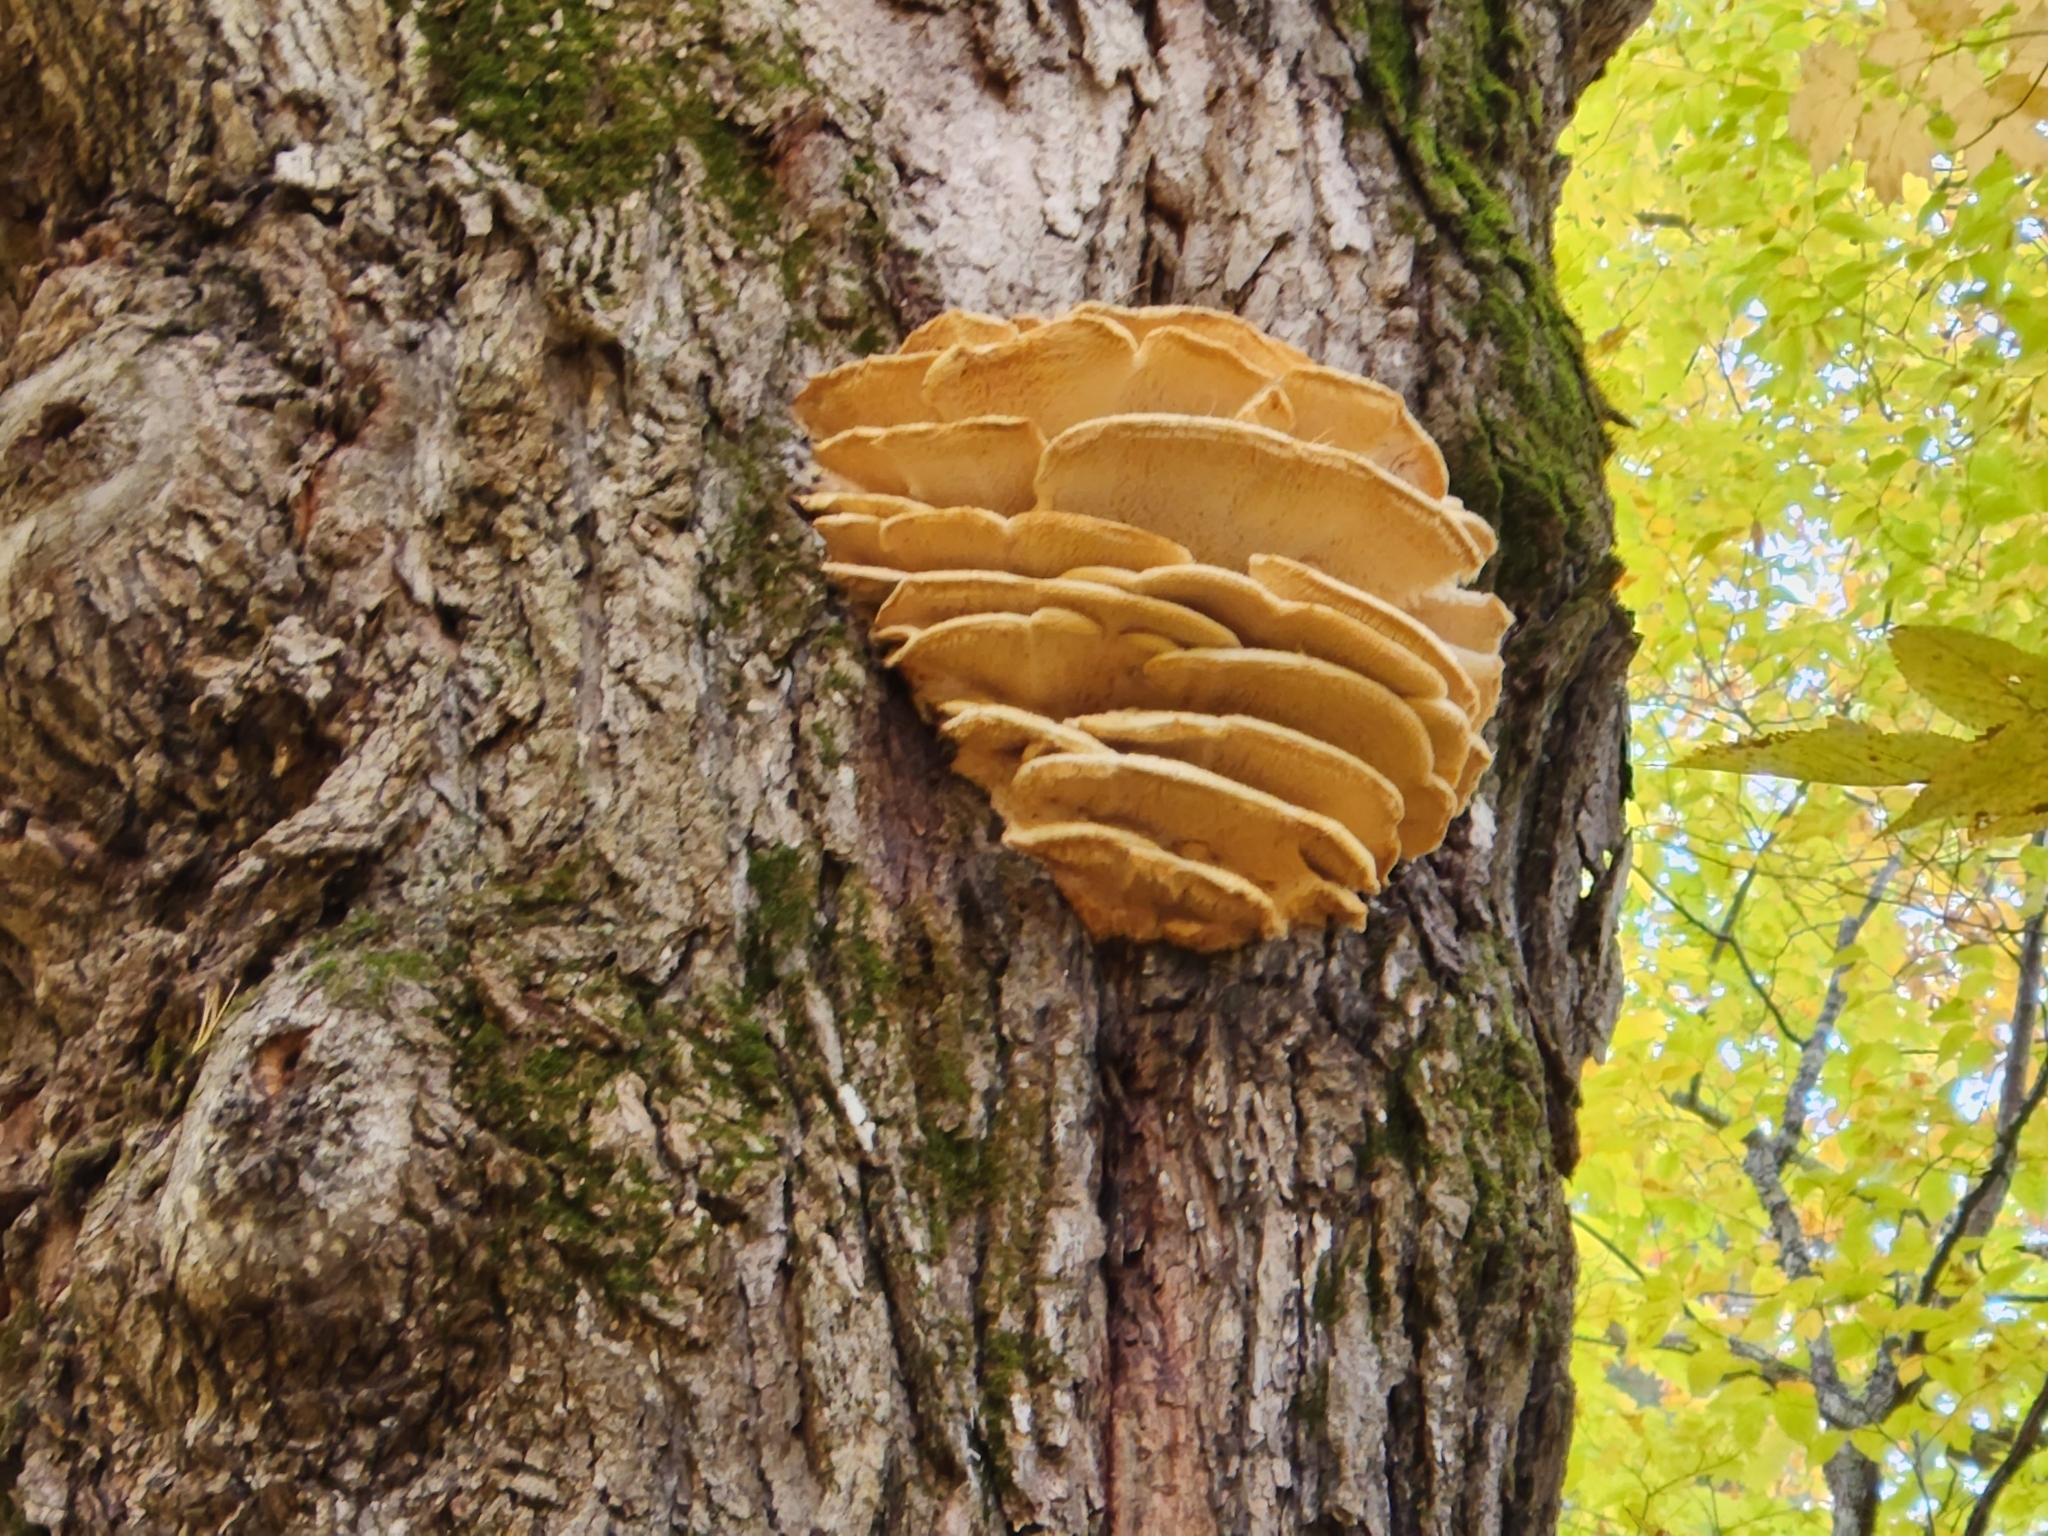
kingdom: Fungi
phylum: Basidiomycota
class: Agaricomycetes
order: Polyporales
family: Meruliaceae
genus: Climacodon
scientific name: Climacodon septentrionalis
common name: Northern tooth
